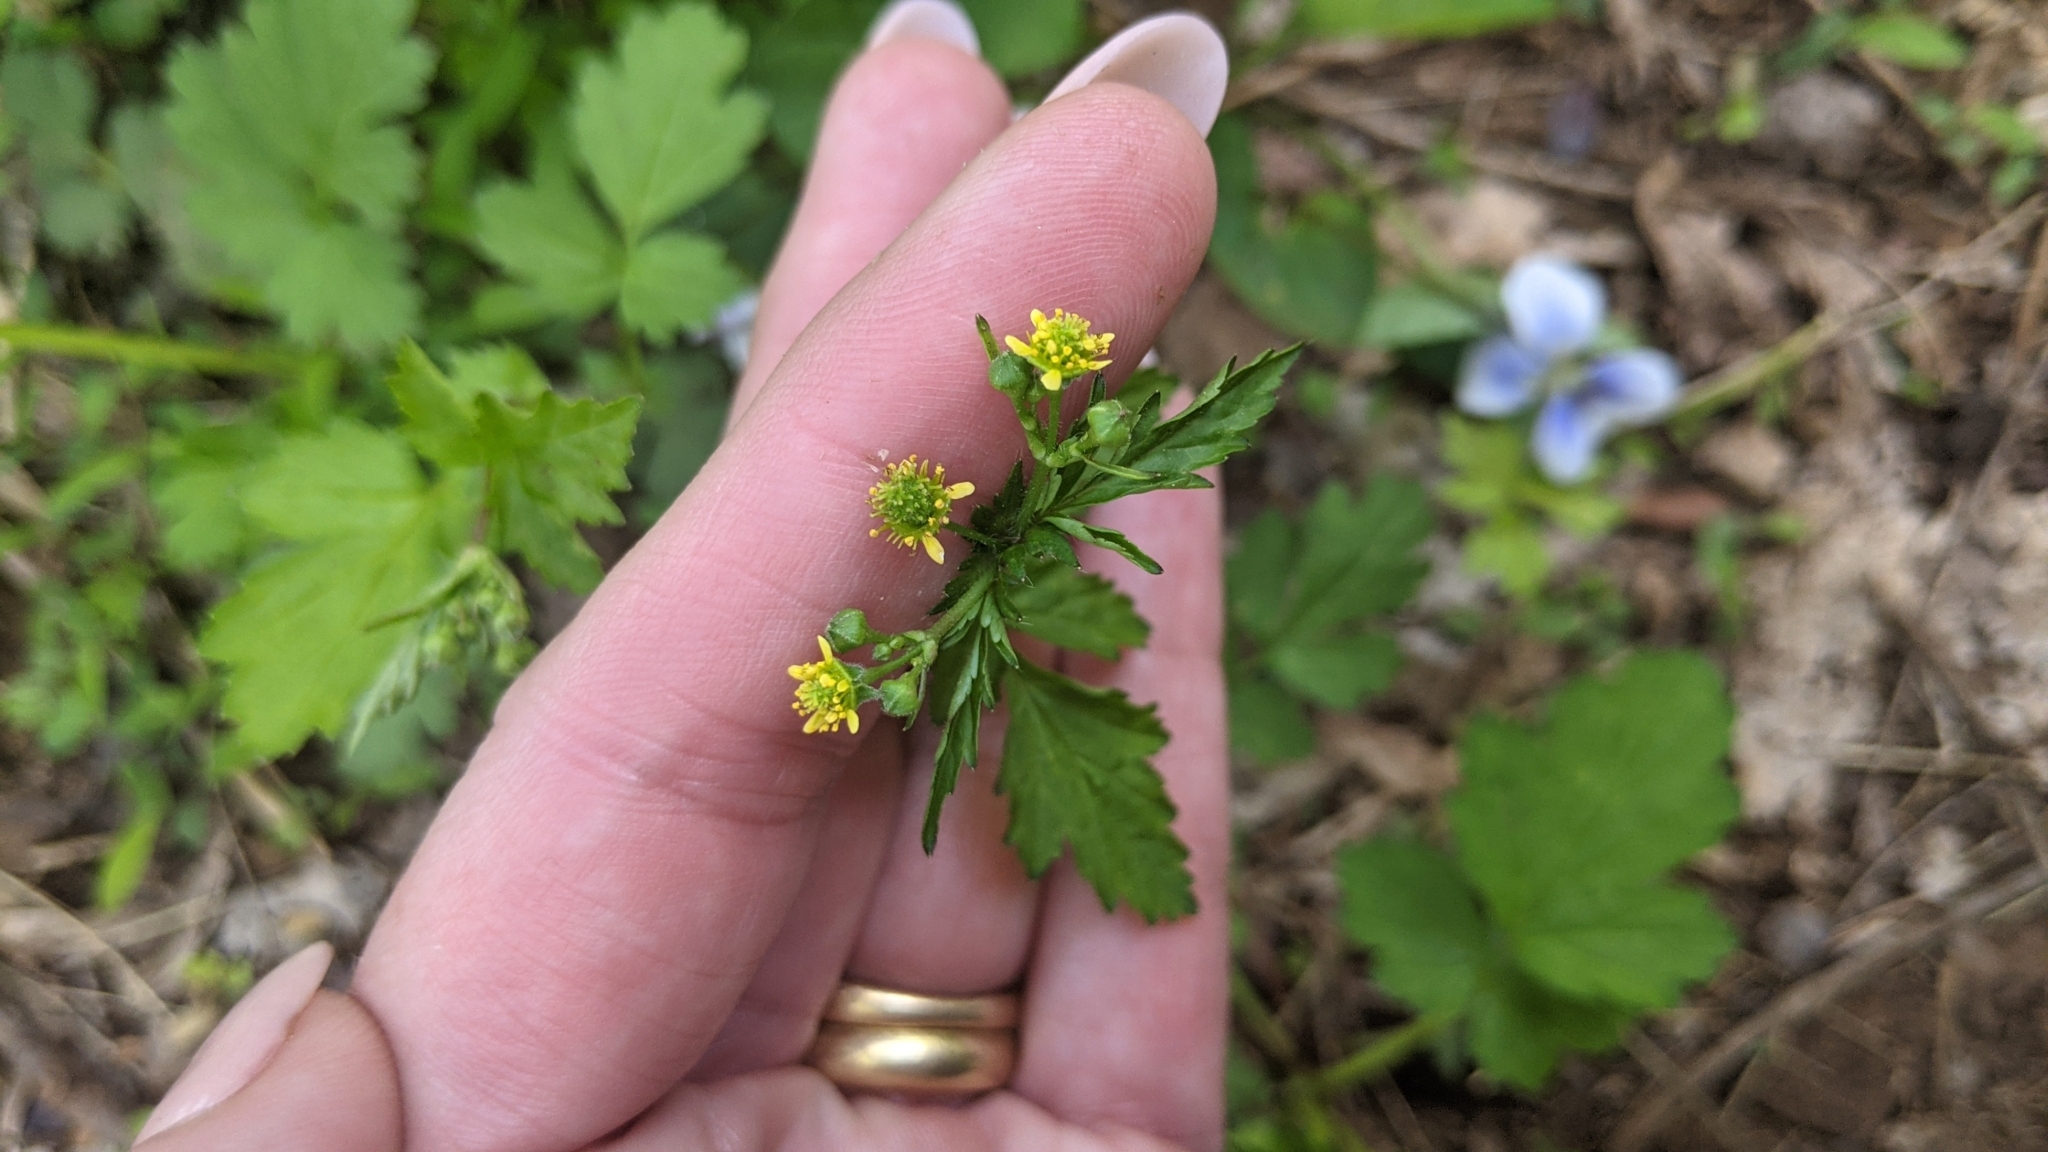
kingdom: Plantae
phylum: Tracheophyta
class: Magnoliopsida
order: Rosales
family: Rosaceae
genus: Geum
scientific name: Geum vernum
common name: Spring avens
